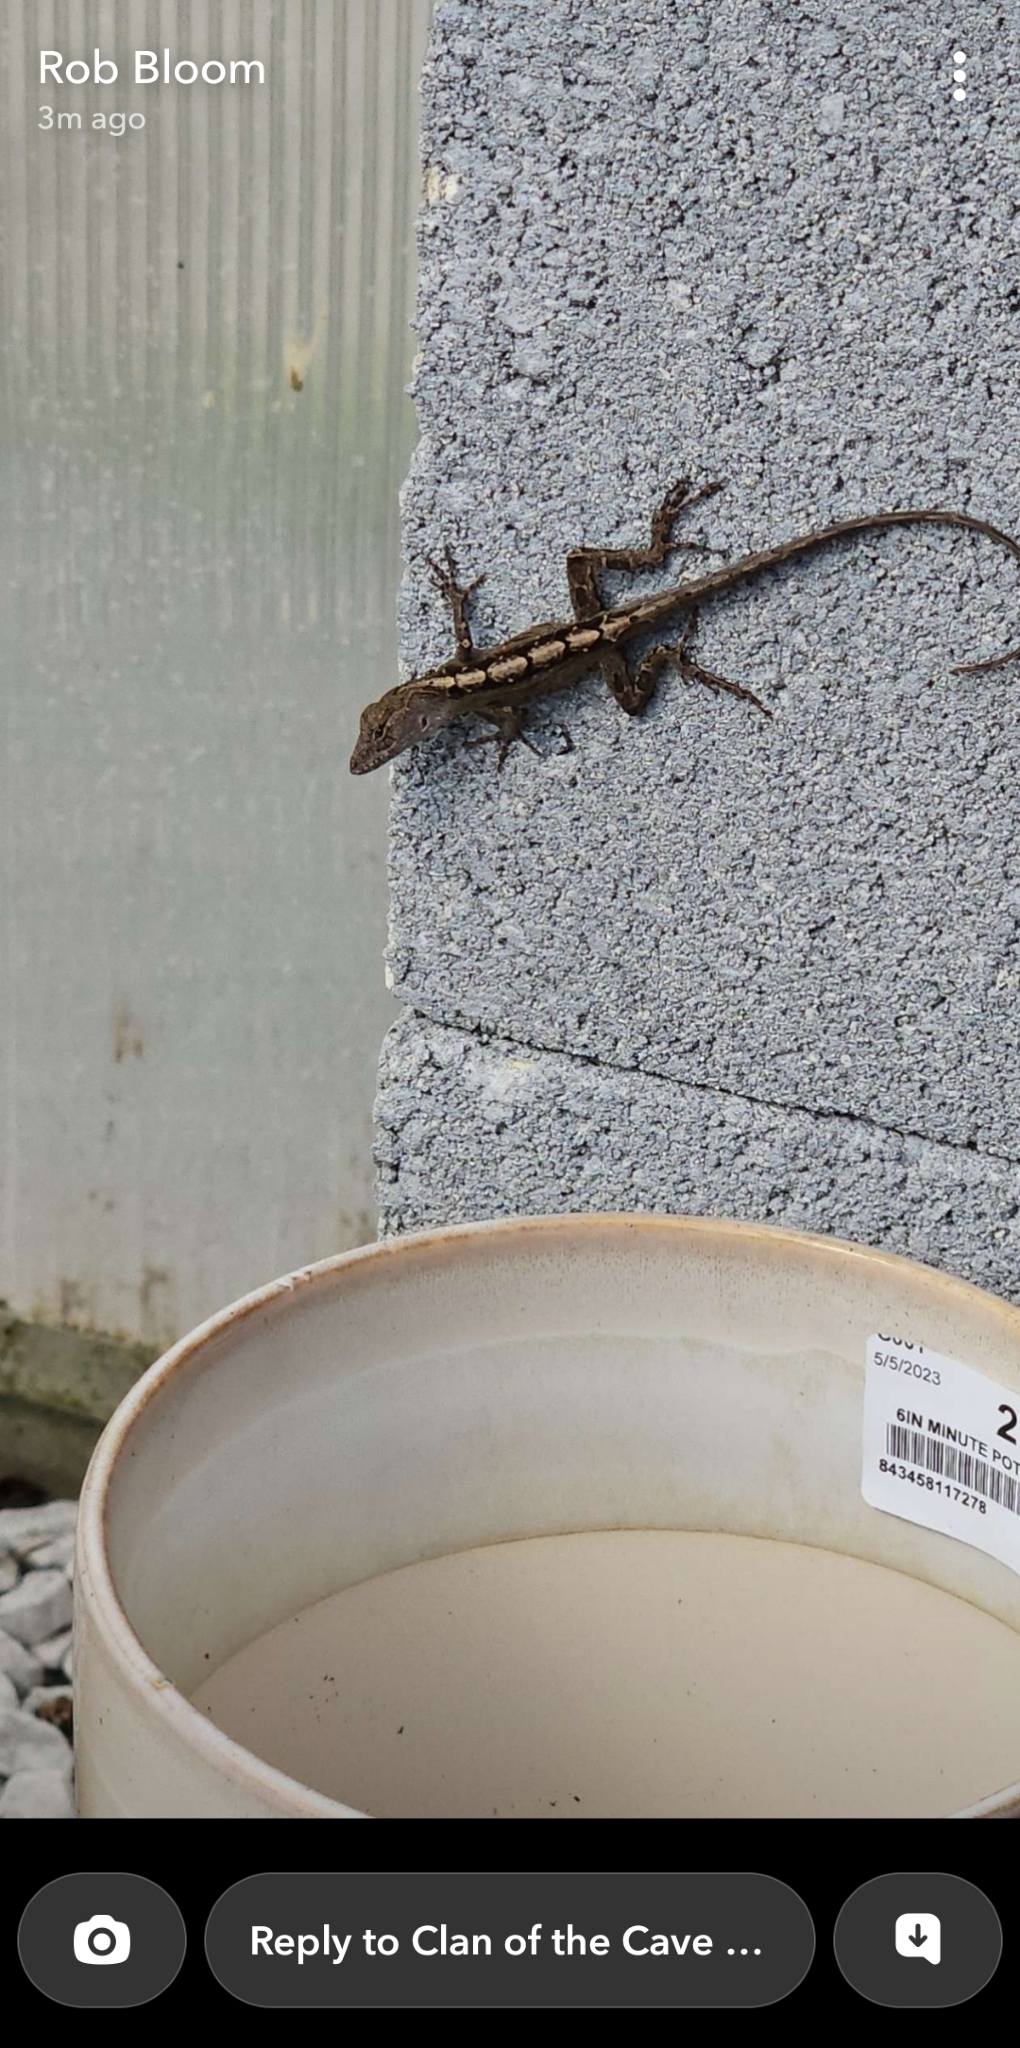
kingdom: Animalia
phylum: Chordata
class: Squamata
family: Dactyloidae
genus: Anolis
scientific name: Anolis sagrei
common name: Brown anole
